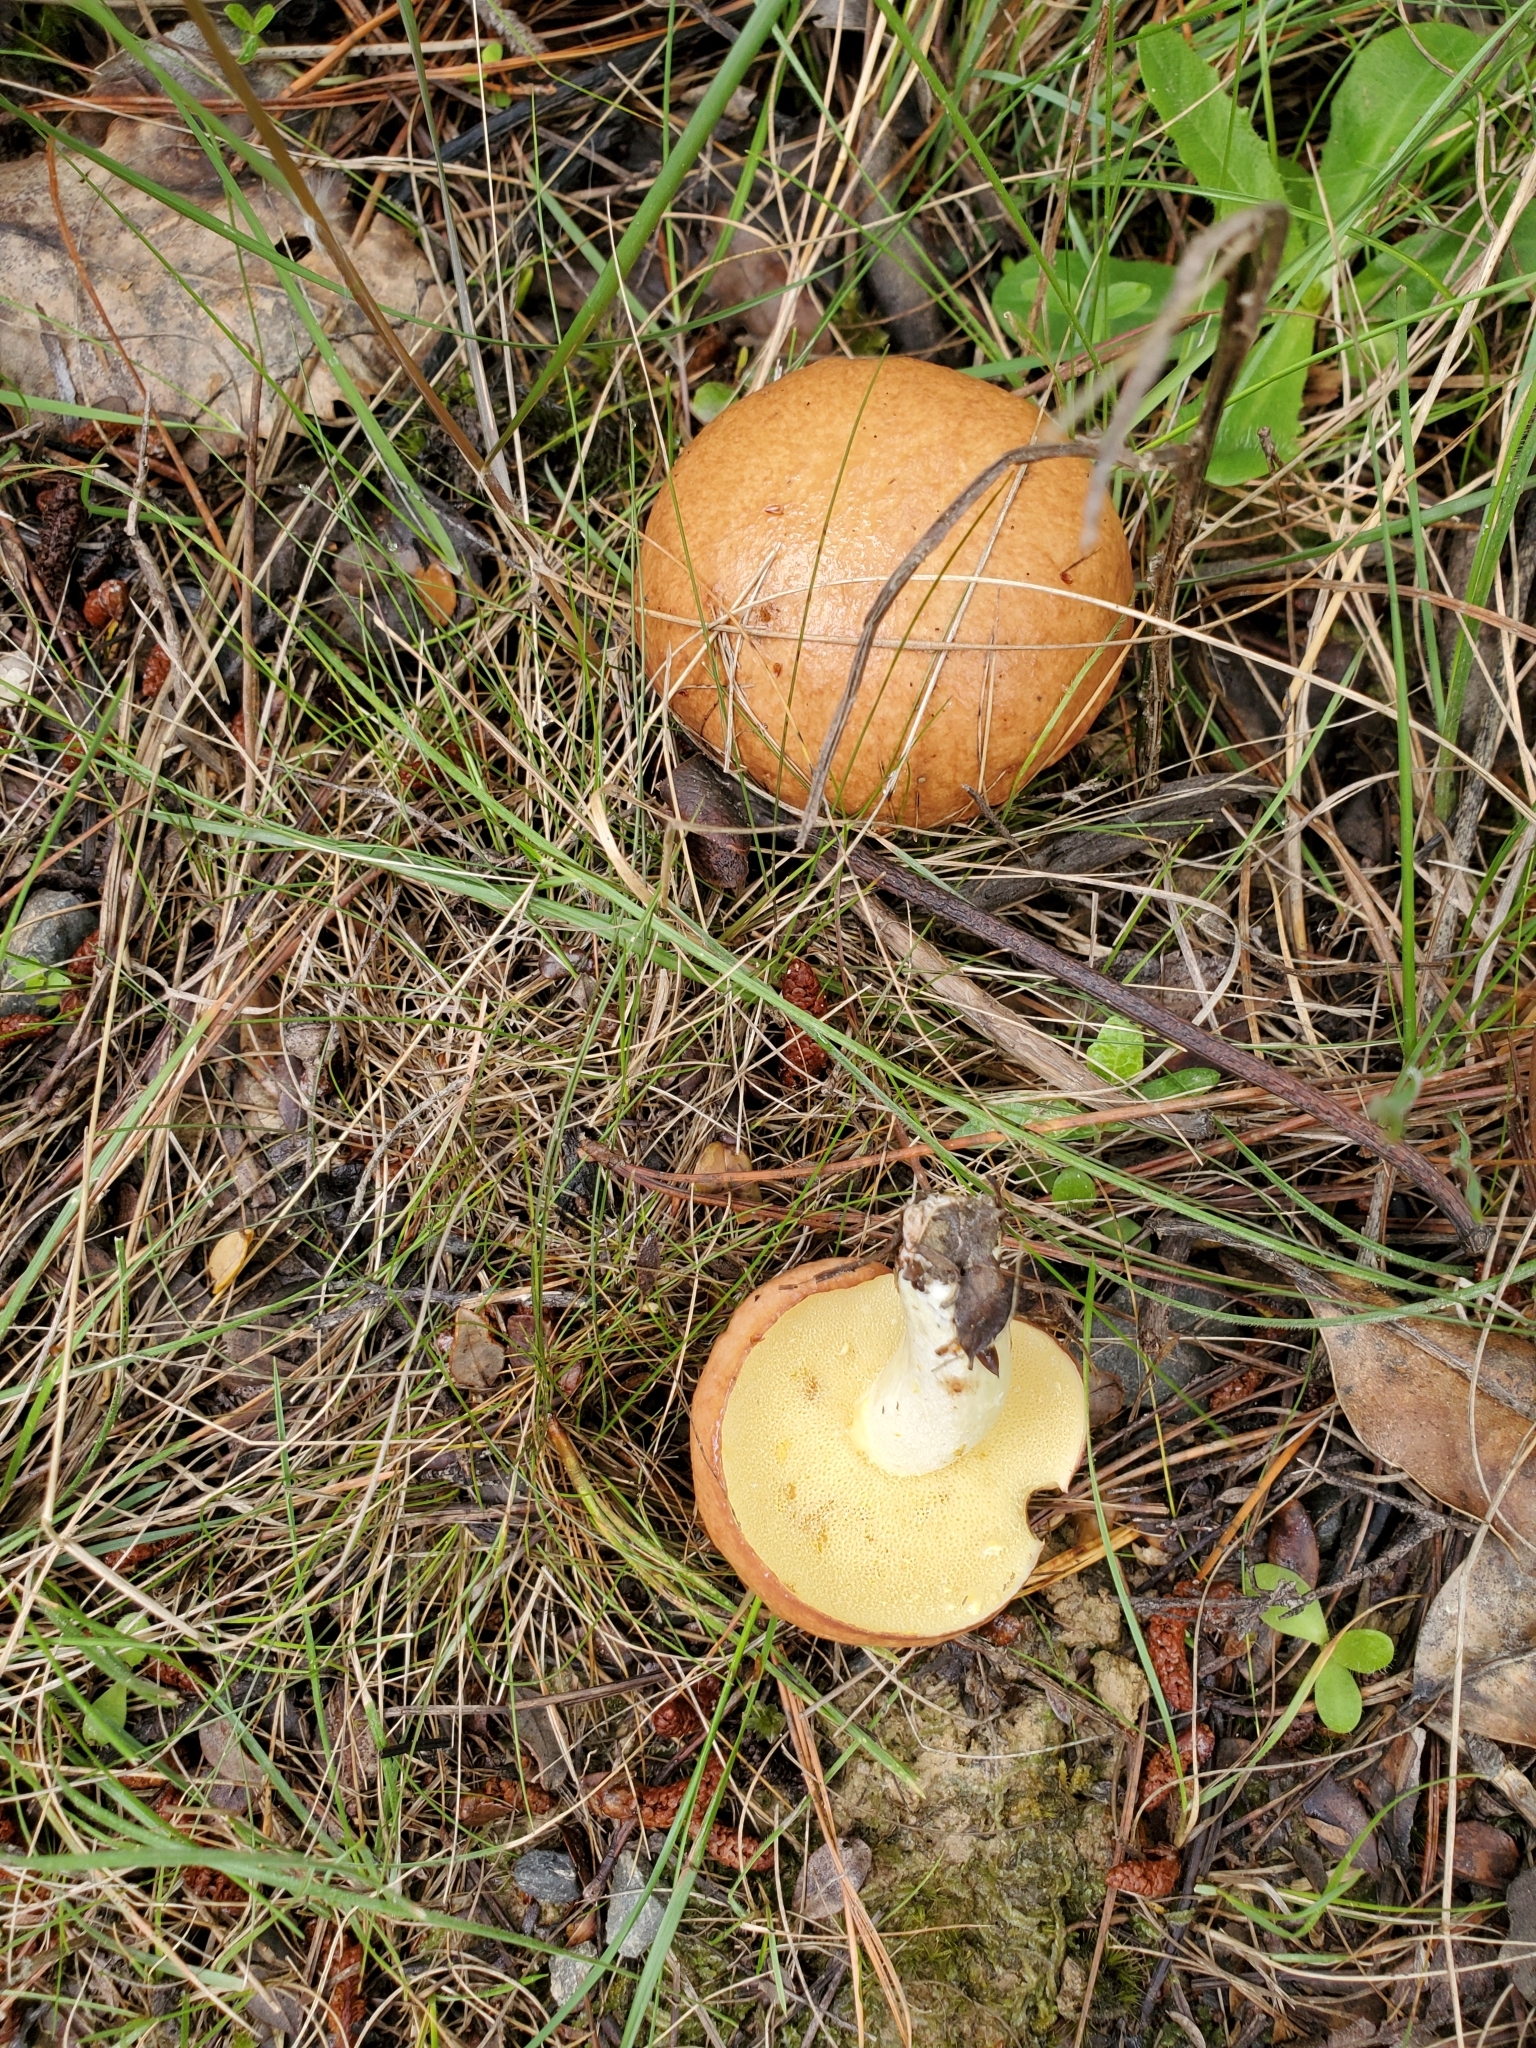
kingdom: Fungi
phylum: Basidiomycota
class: Agaricomycetes
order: Boletales
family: Suillaceae
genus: Suillus
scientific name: Suillus granulatus
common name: Weeping bolete
